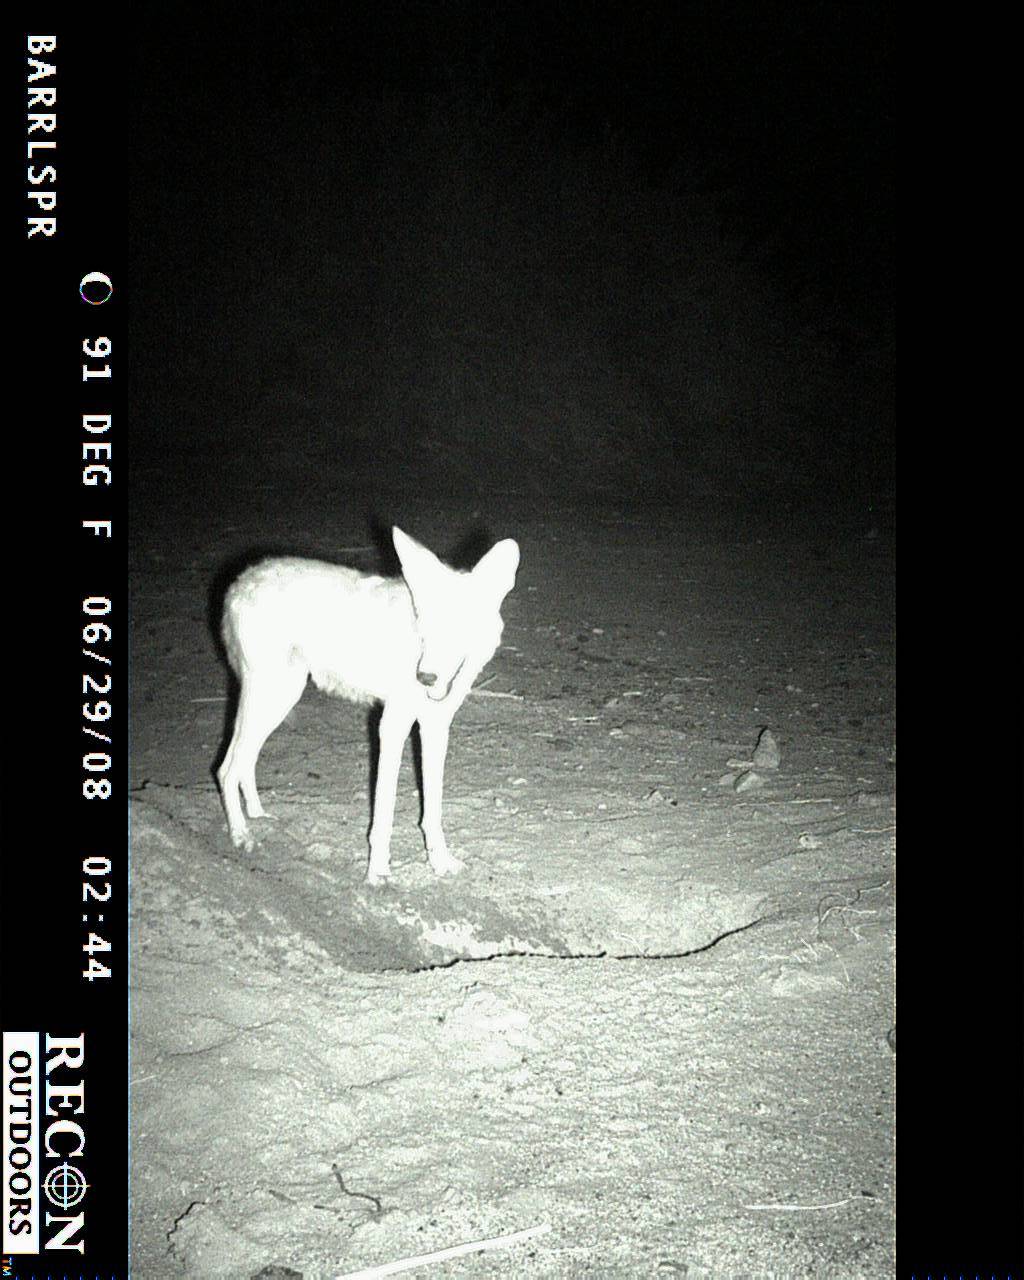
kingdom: Animalia
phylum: Chordata
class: Mammalia
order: Carnivora
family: Canidae
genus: Canis
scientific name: Canis latrans
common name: Coyote
